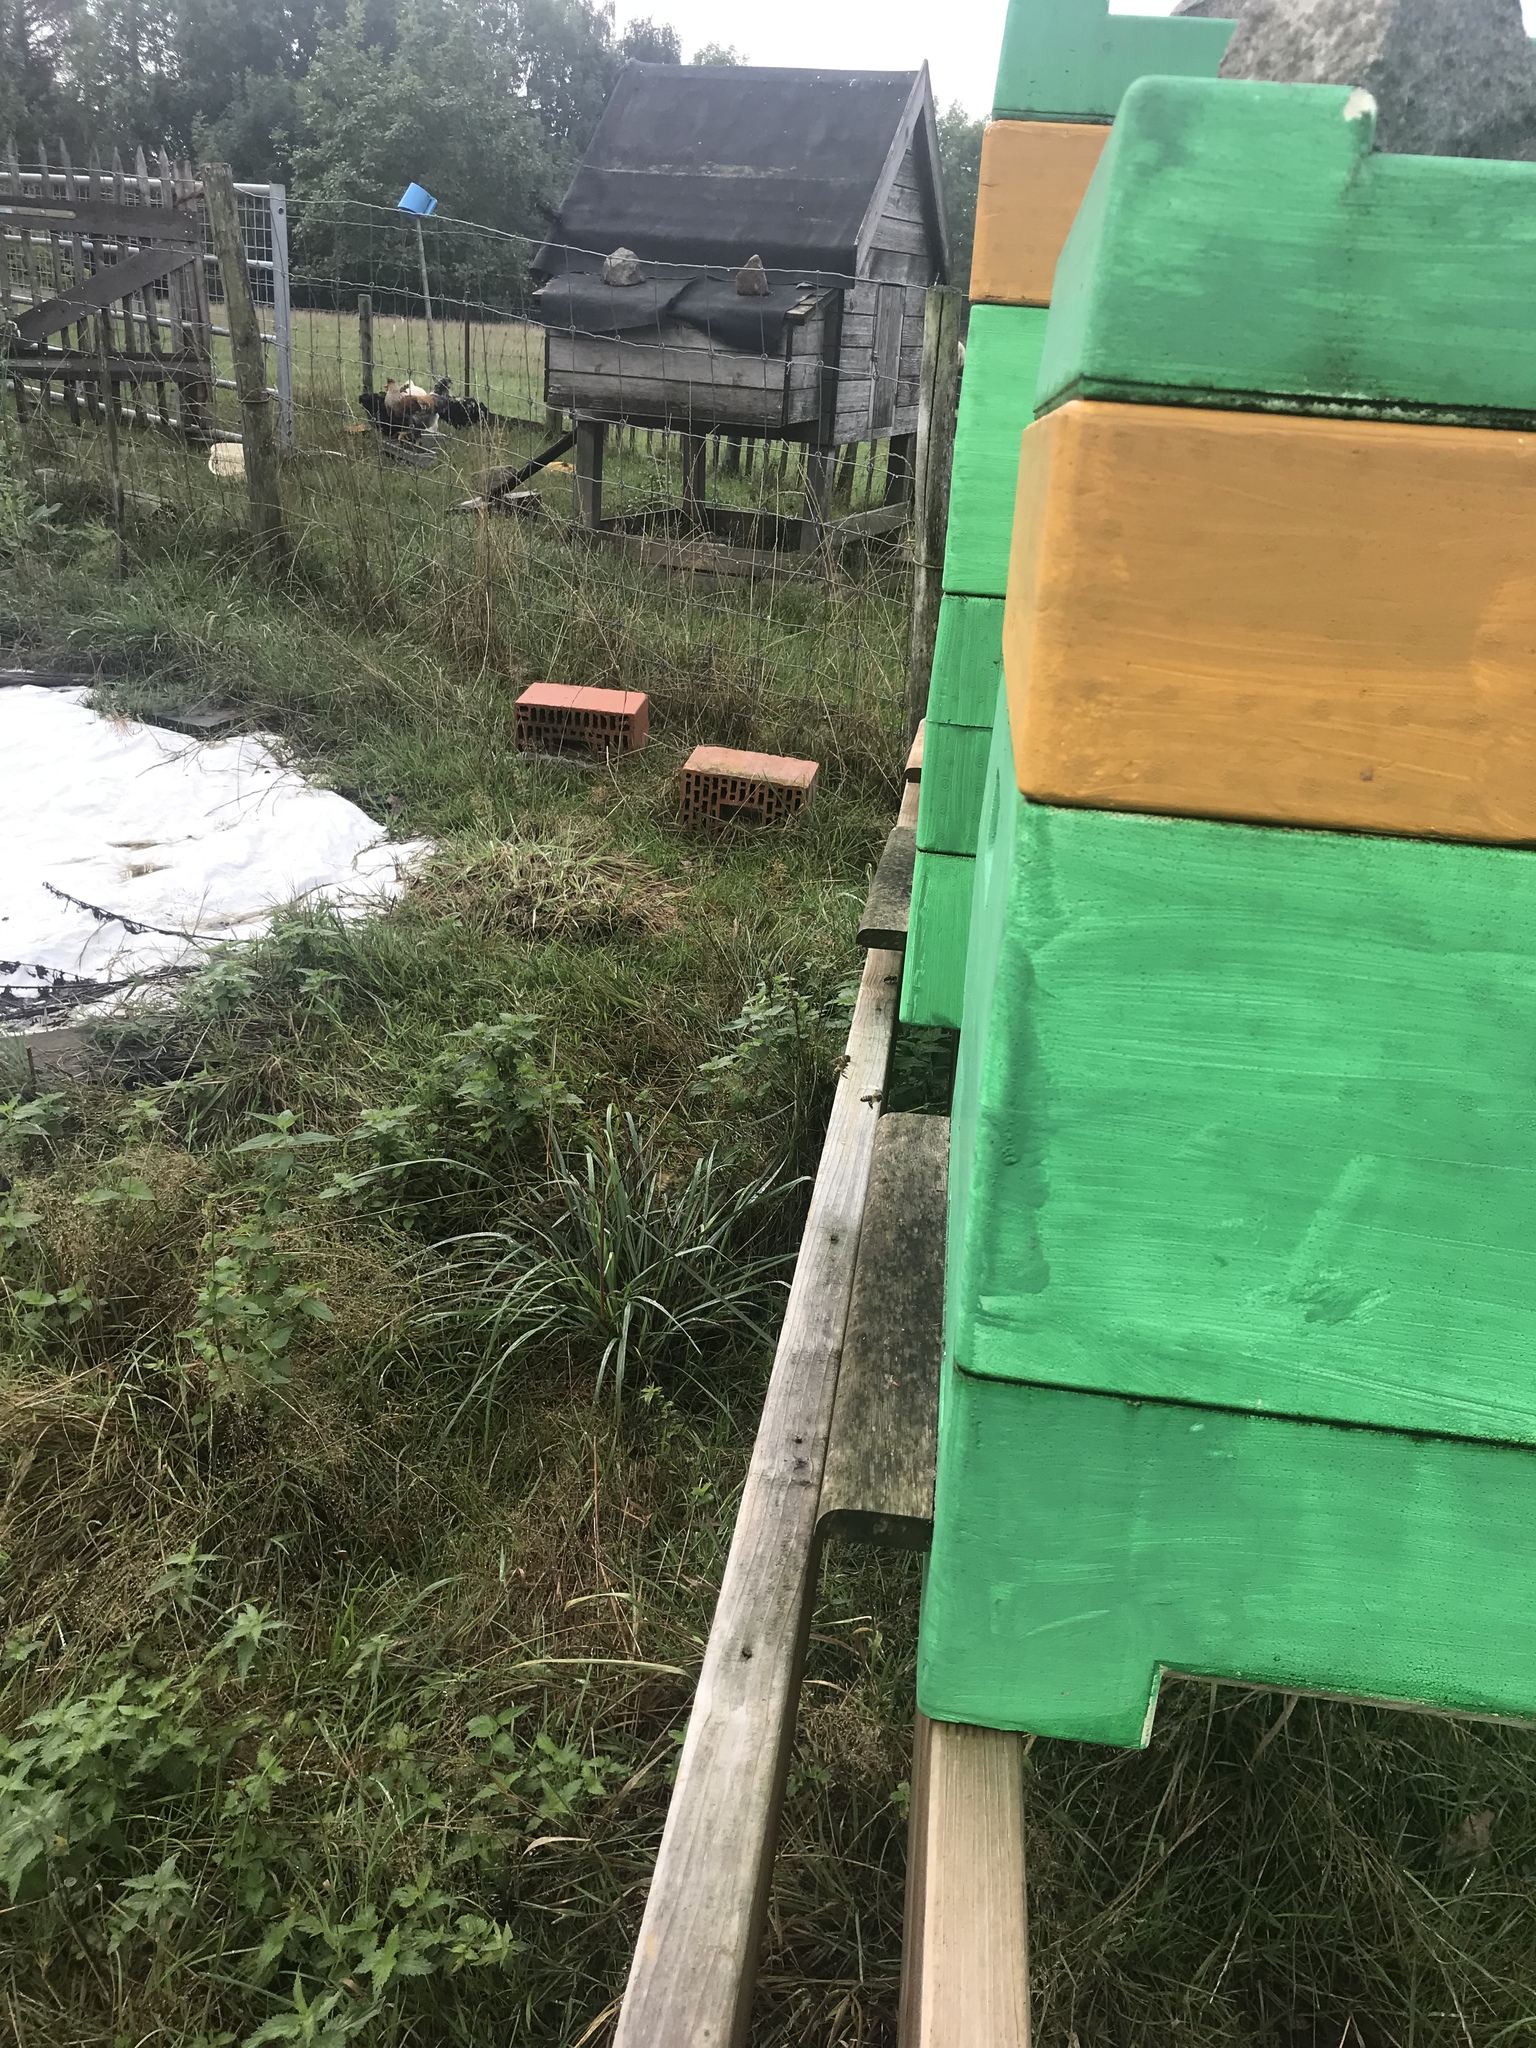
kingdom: Animalia
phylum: Arthropoda
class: Insecta
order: Hymenoptera
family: Vespidae
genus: Vespa
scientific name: Vespa velutina
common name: Asian hornet
